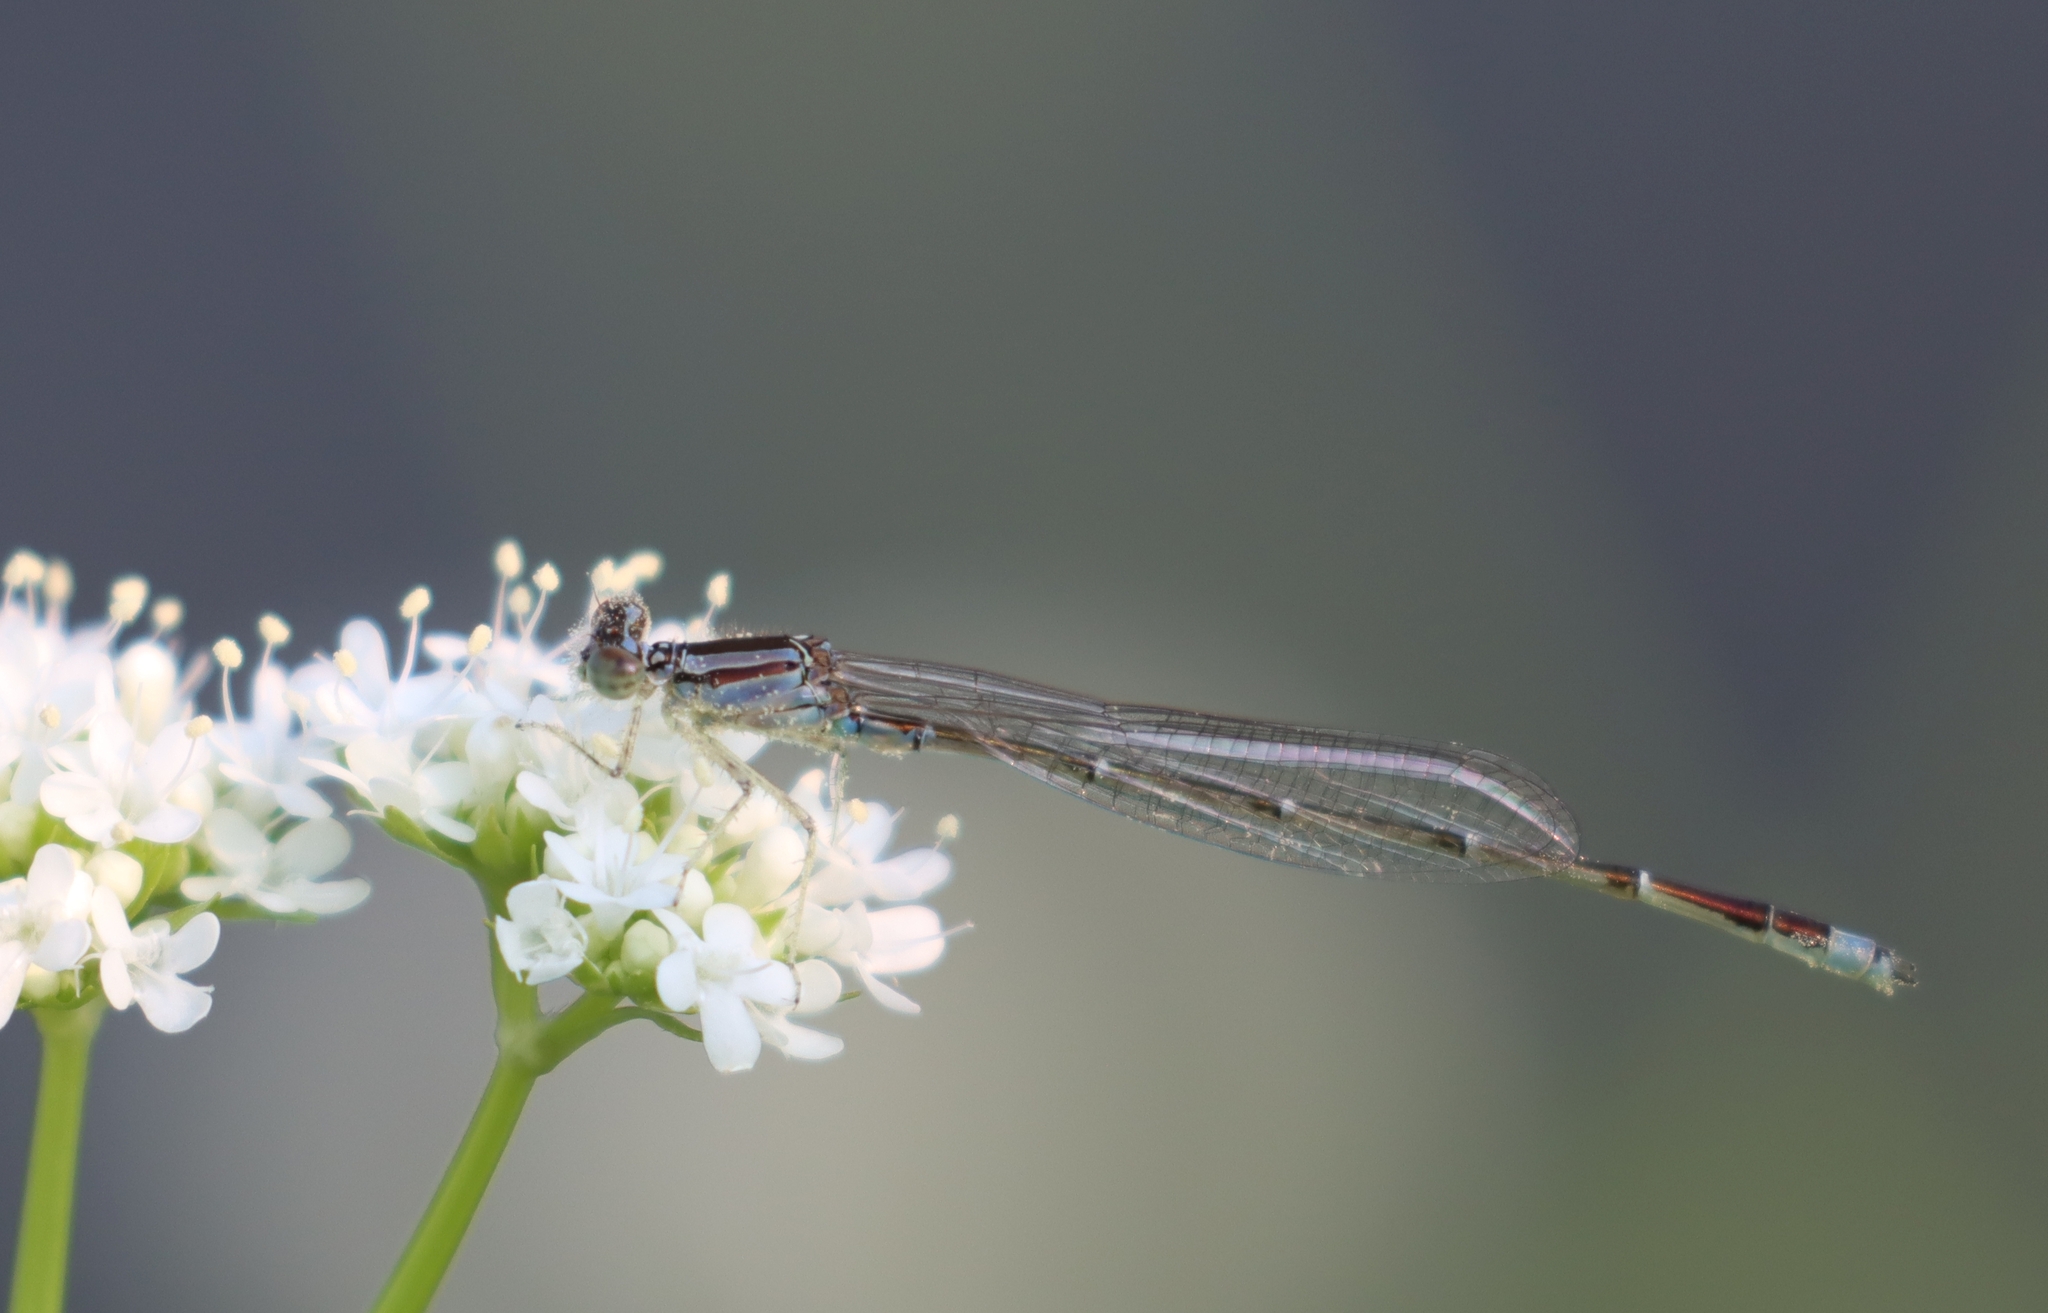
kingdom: Animalia
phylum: Arthropoda
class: Insecta
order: Odonata
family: Coenagrionidae
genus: Enallagma
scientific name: Enallagma signatum
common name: Orange bluet
